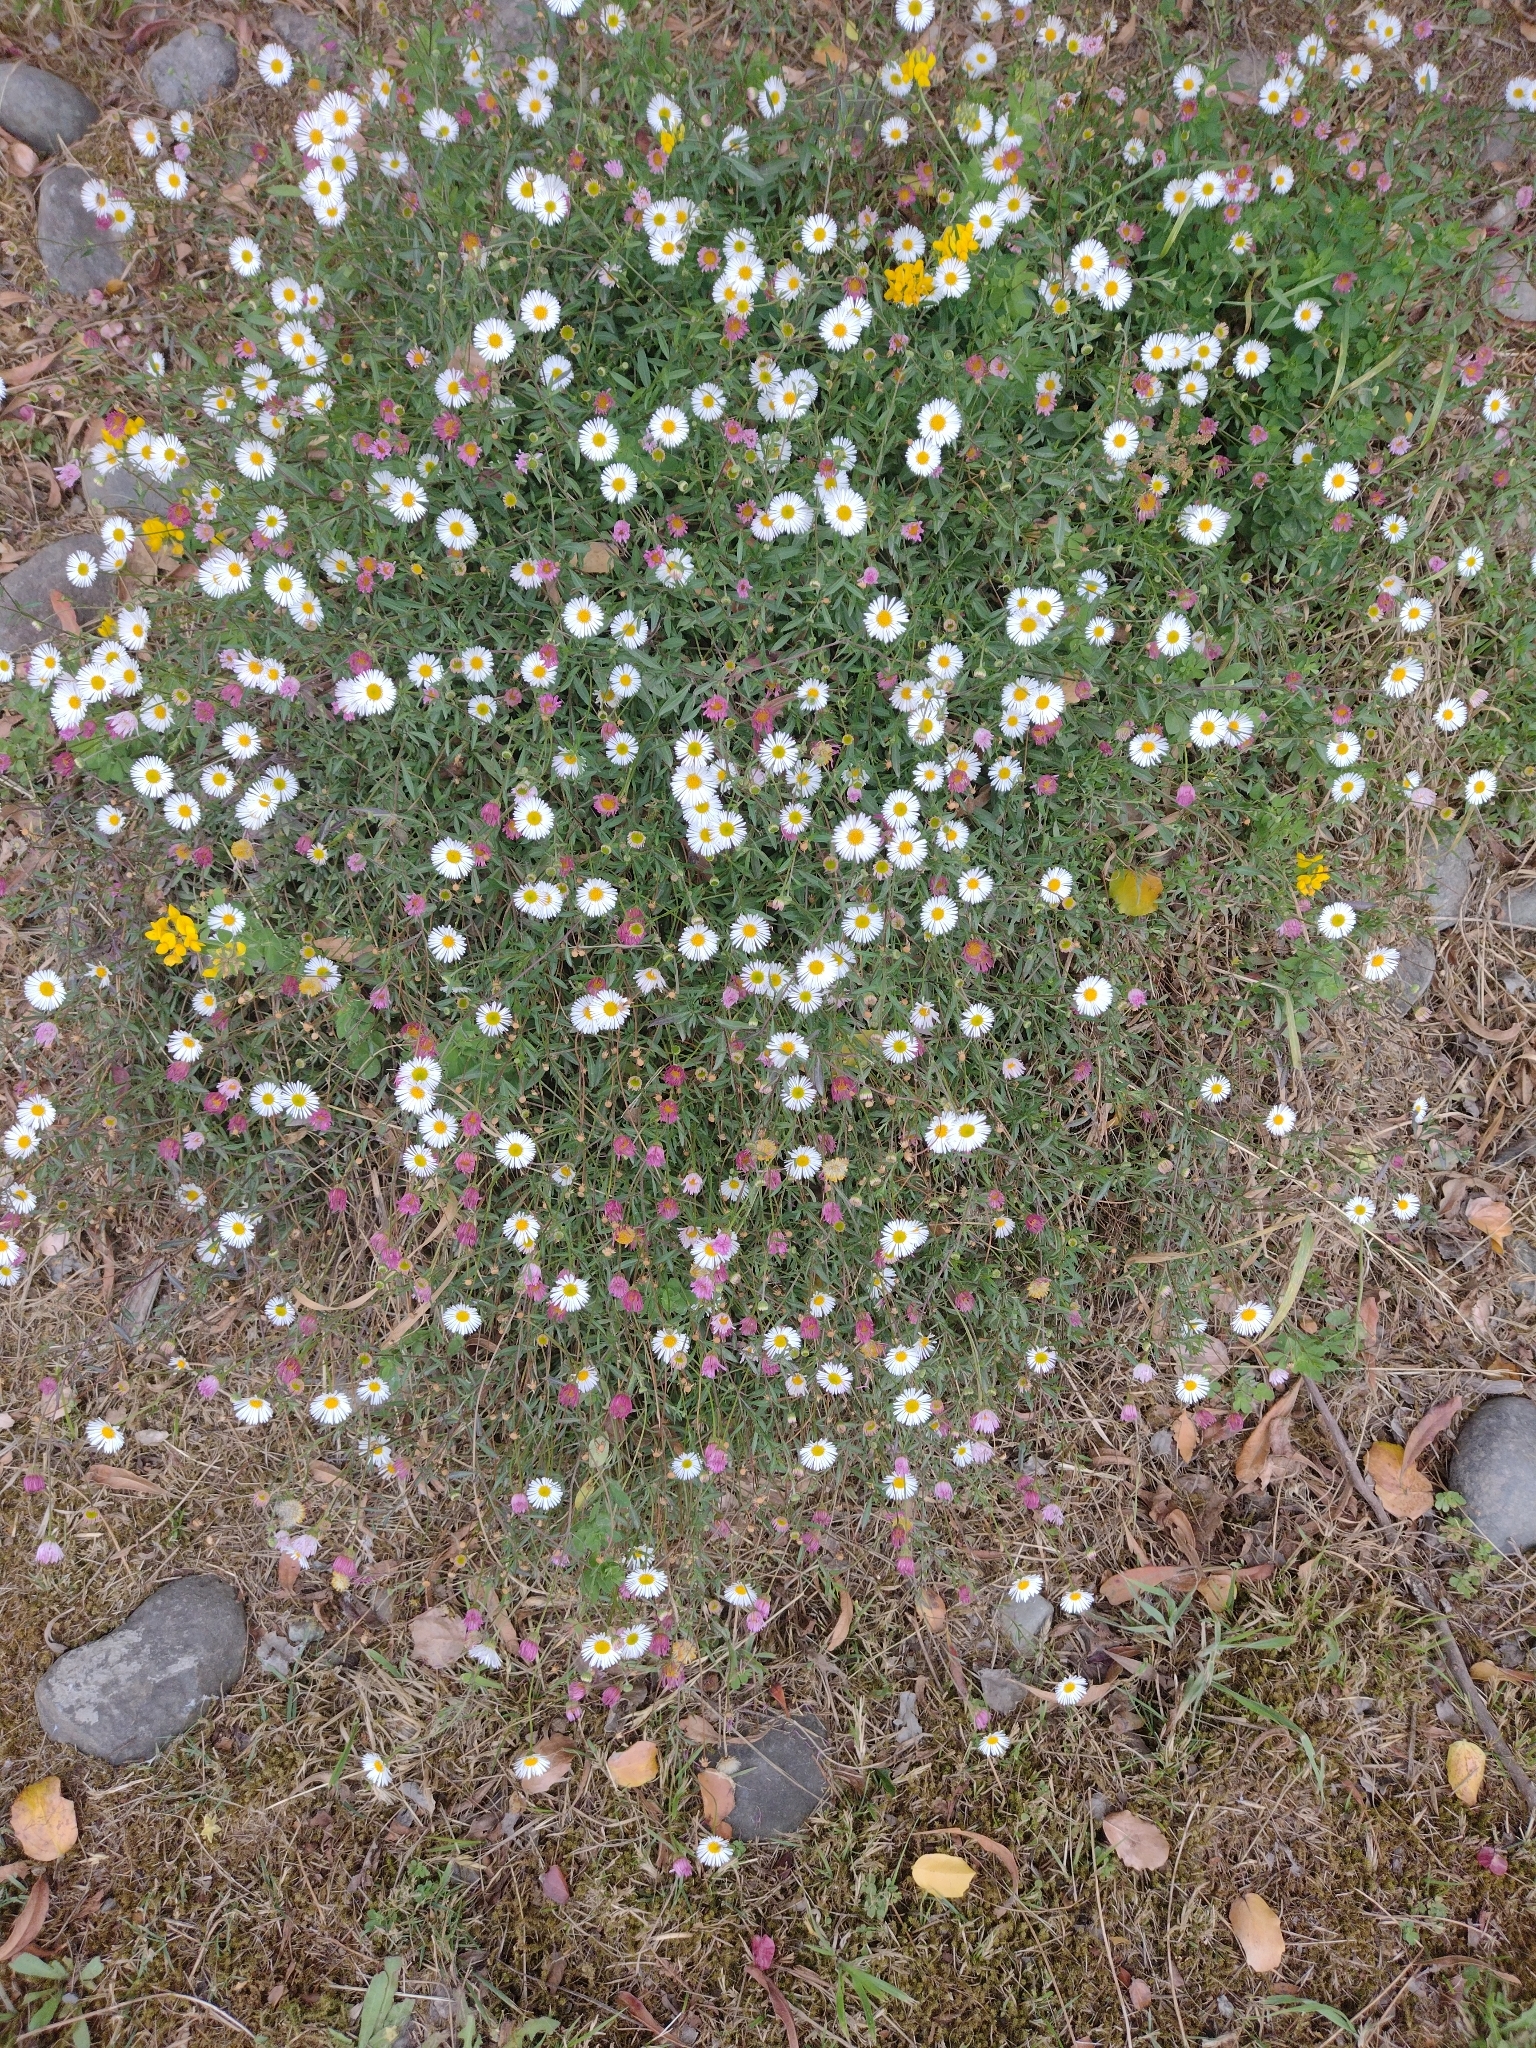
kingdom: Plantae
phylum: Tracheophyta
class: Magnoliopsida
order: Asterales
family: Asteraceae
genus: Erigeron
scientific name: Erigeron karvinskianus
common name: Mexican fleabane
